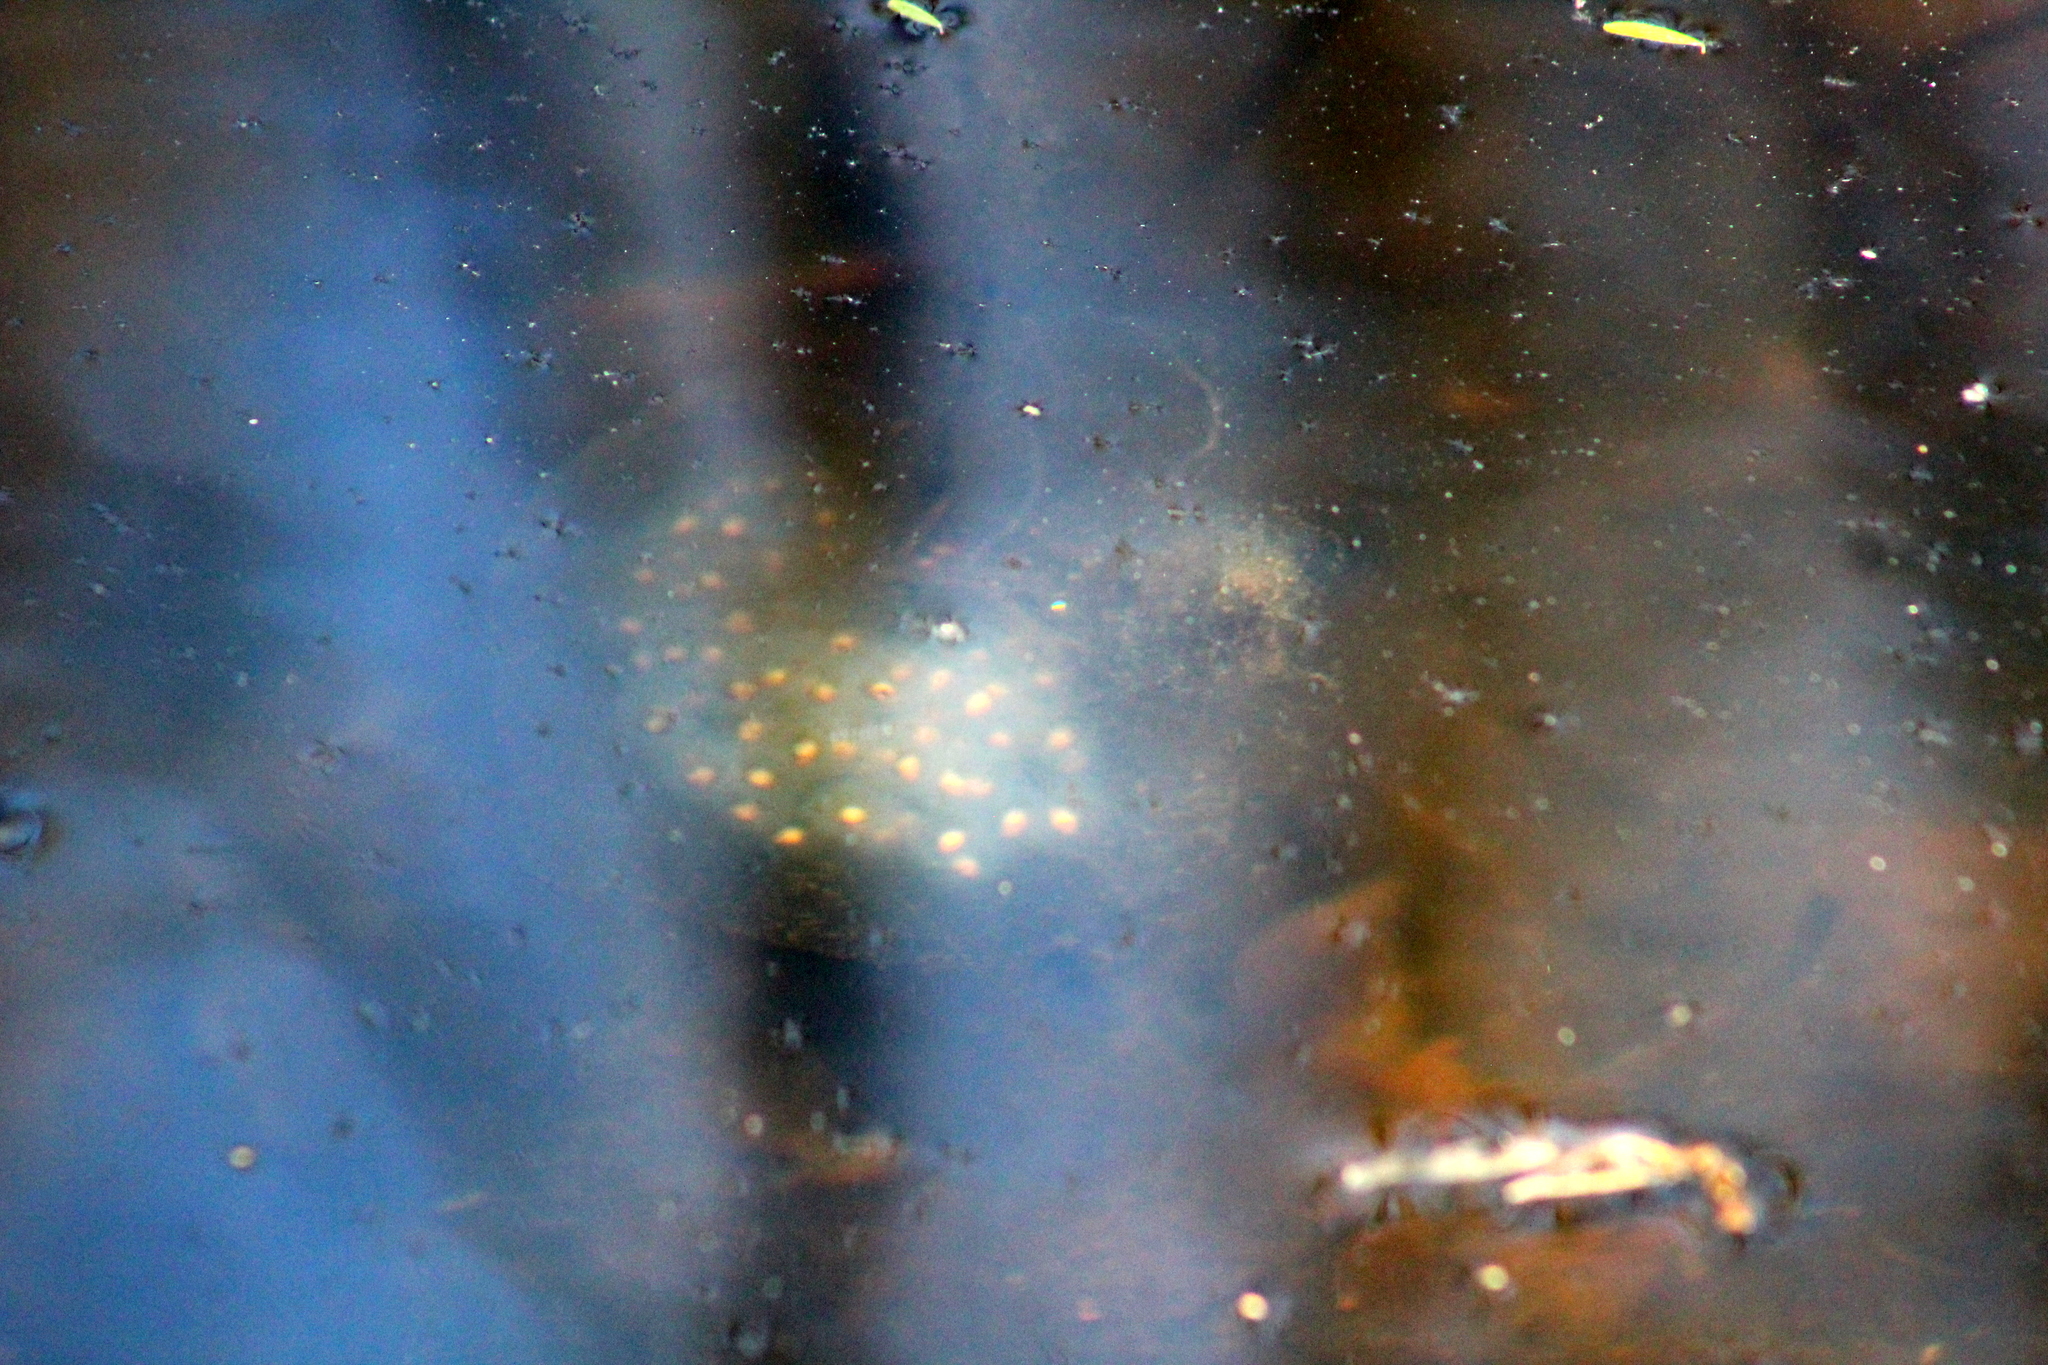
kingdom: Animalia
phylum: Chordata
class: Amphibia
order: Caudata
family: Ambystomatidae
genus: Ambystoma
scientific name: Ambystoma maculatum
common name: Spotted salamander
